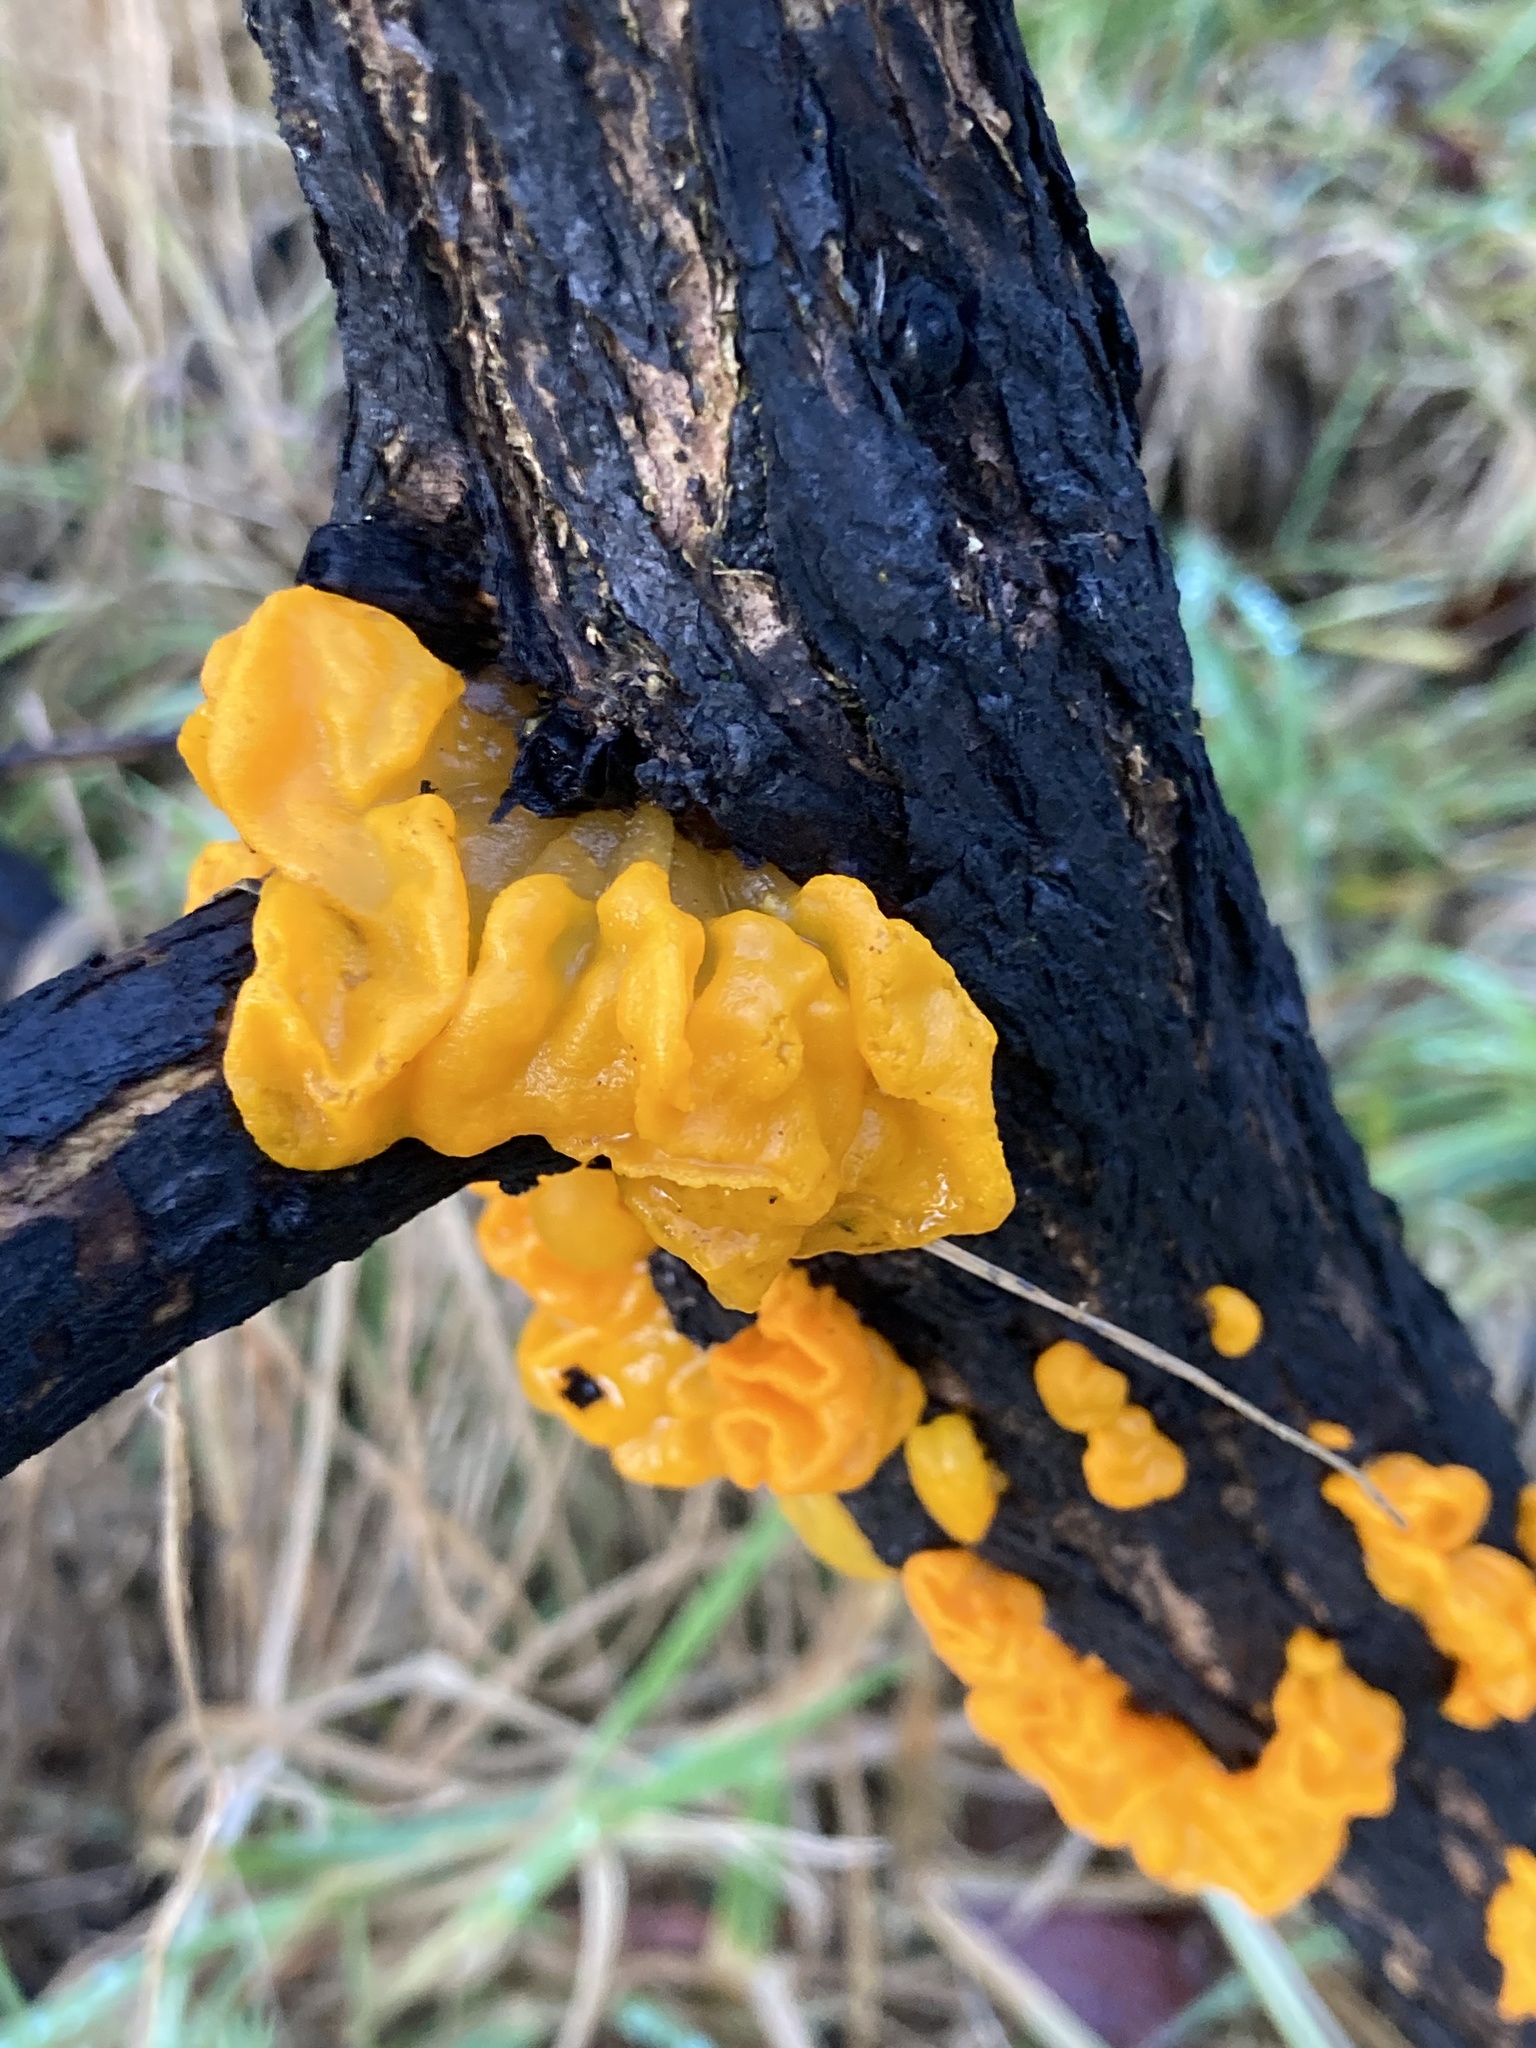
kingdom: Fungi
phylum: Basidiomycota
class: Tremellomycetes
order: Tremellales
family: Tremellaceae
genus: Tremella
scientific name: Tremella mesenterica
